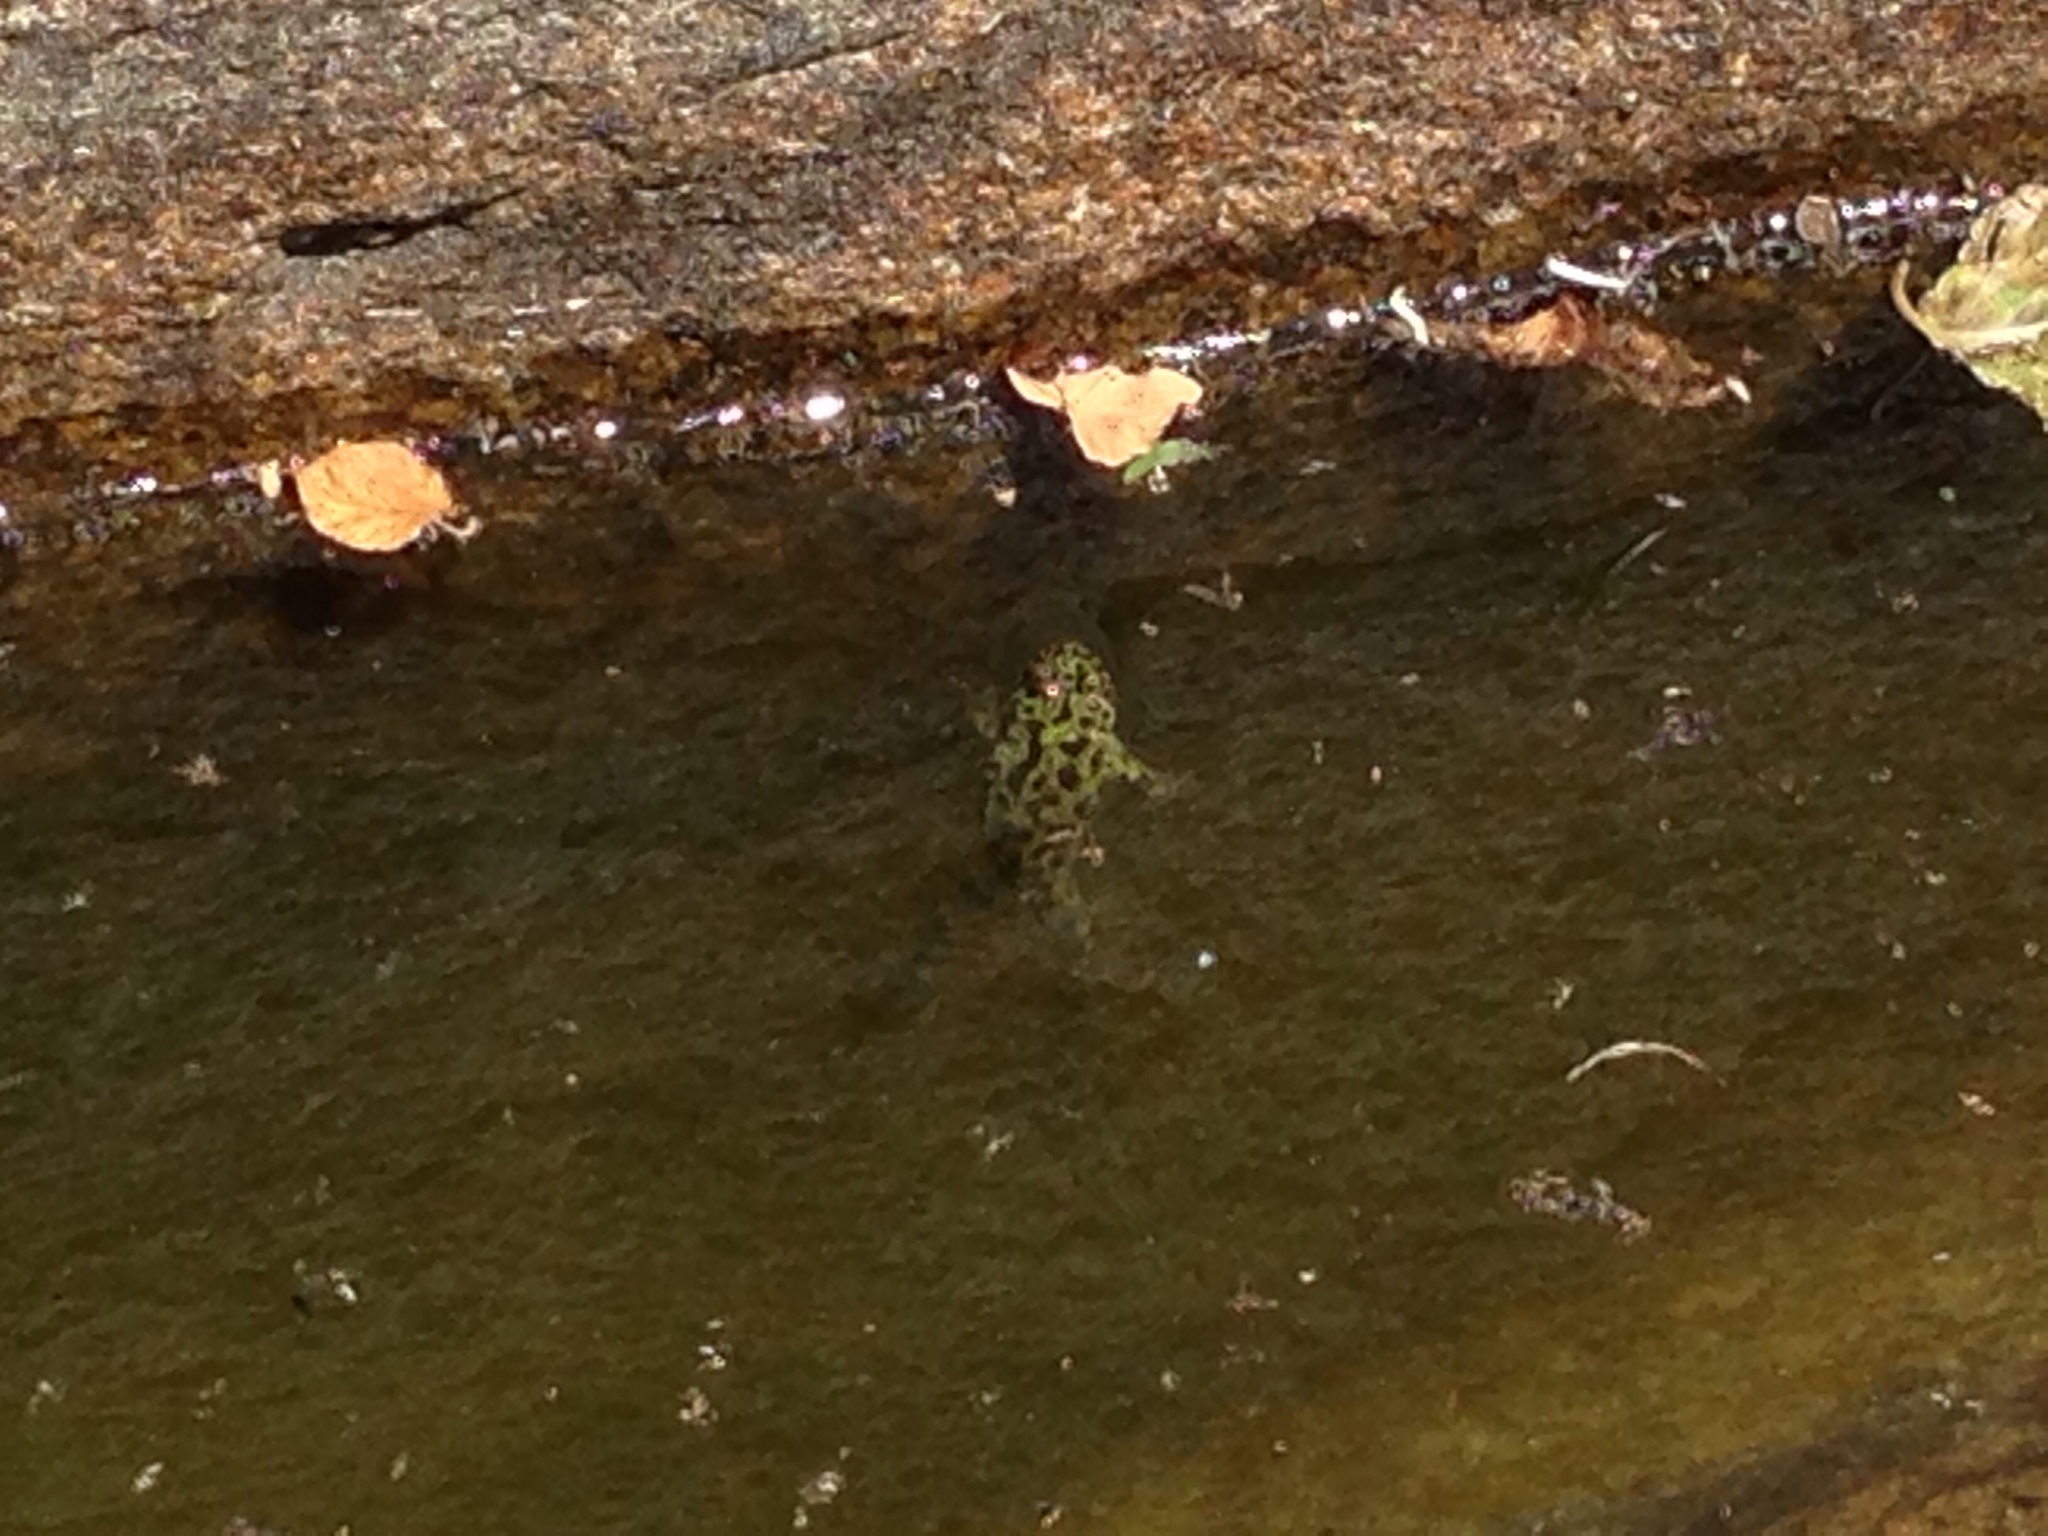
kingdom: Animalia
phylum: Chordata
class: Amphibia
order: Anura
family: Bombinatoridae
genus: Bombina
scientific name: Bombina orientalis
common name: Oriental firebelly toad
